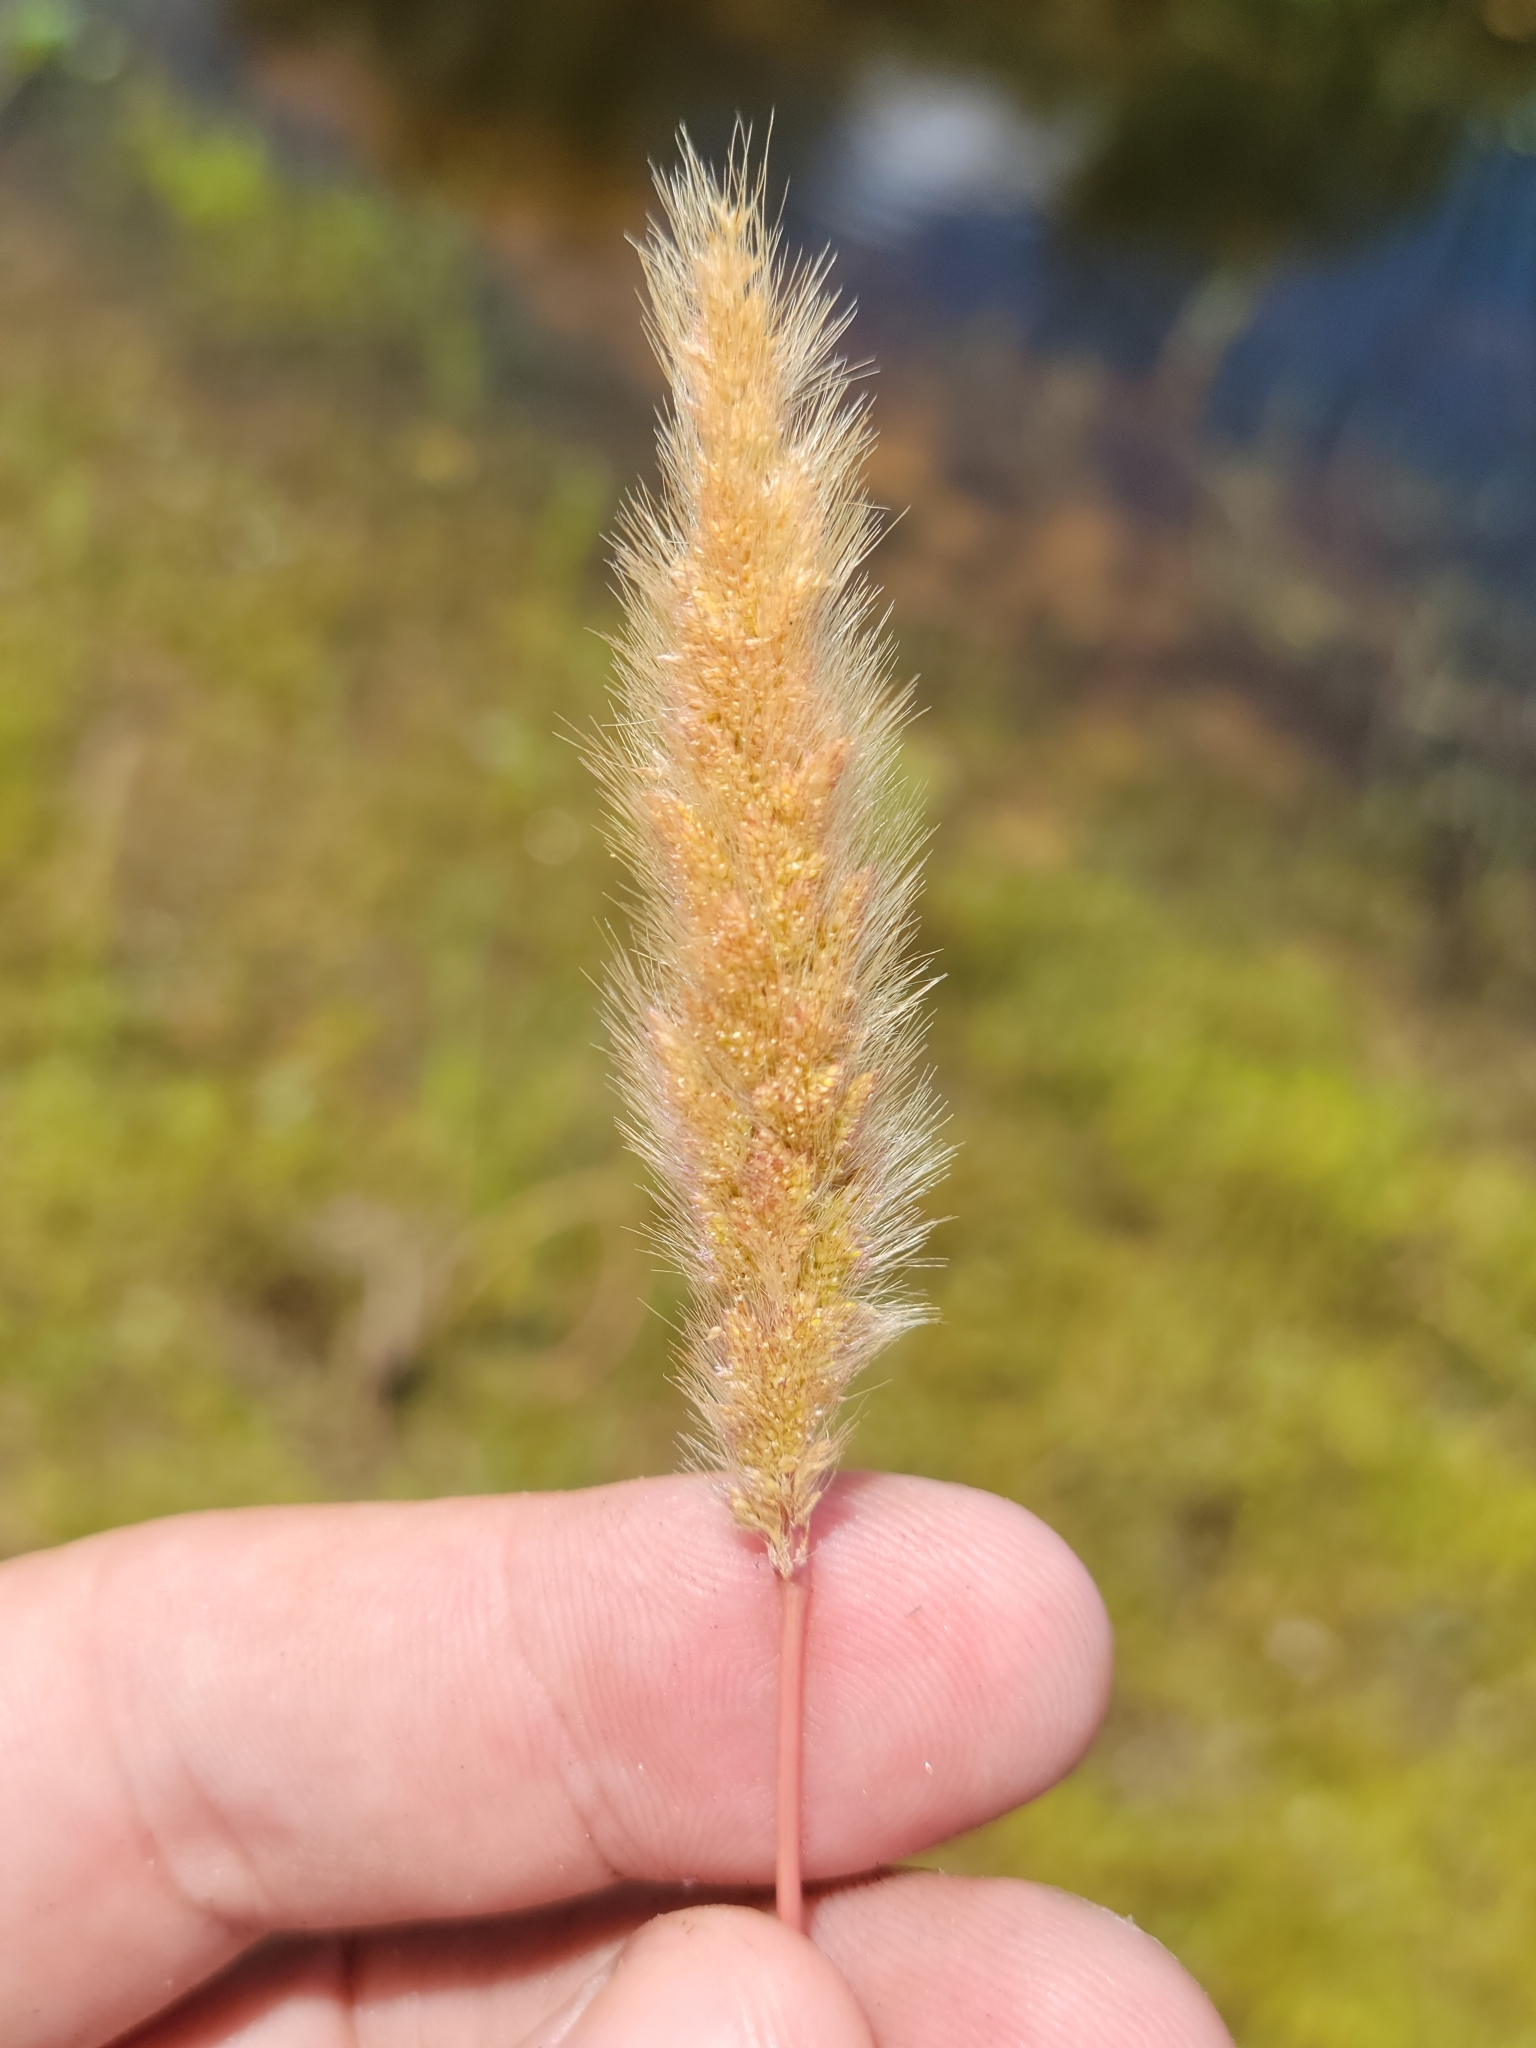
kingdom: Plantae
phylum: Tracheophyta
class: Liliopsida
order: Poales
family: Poaceae
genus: Polypogon
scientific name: Polypogon monspeliensis
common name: Annual rabbitsfoot grass
